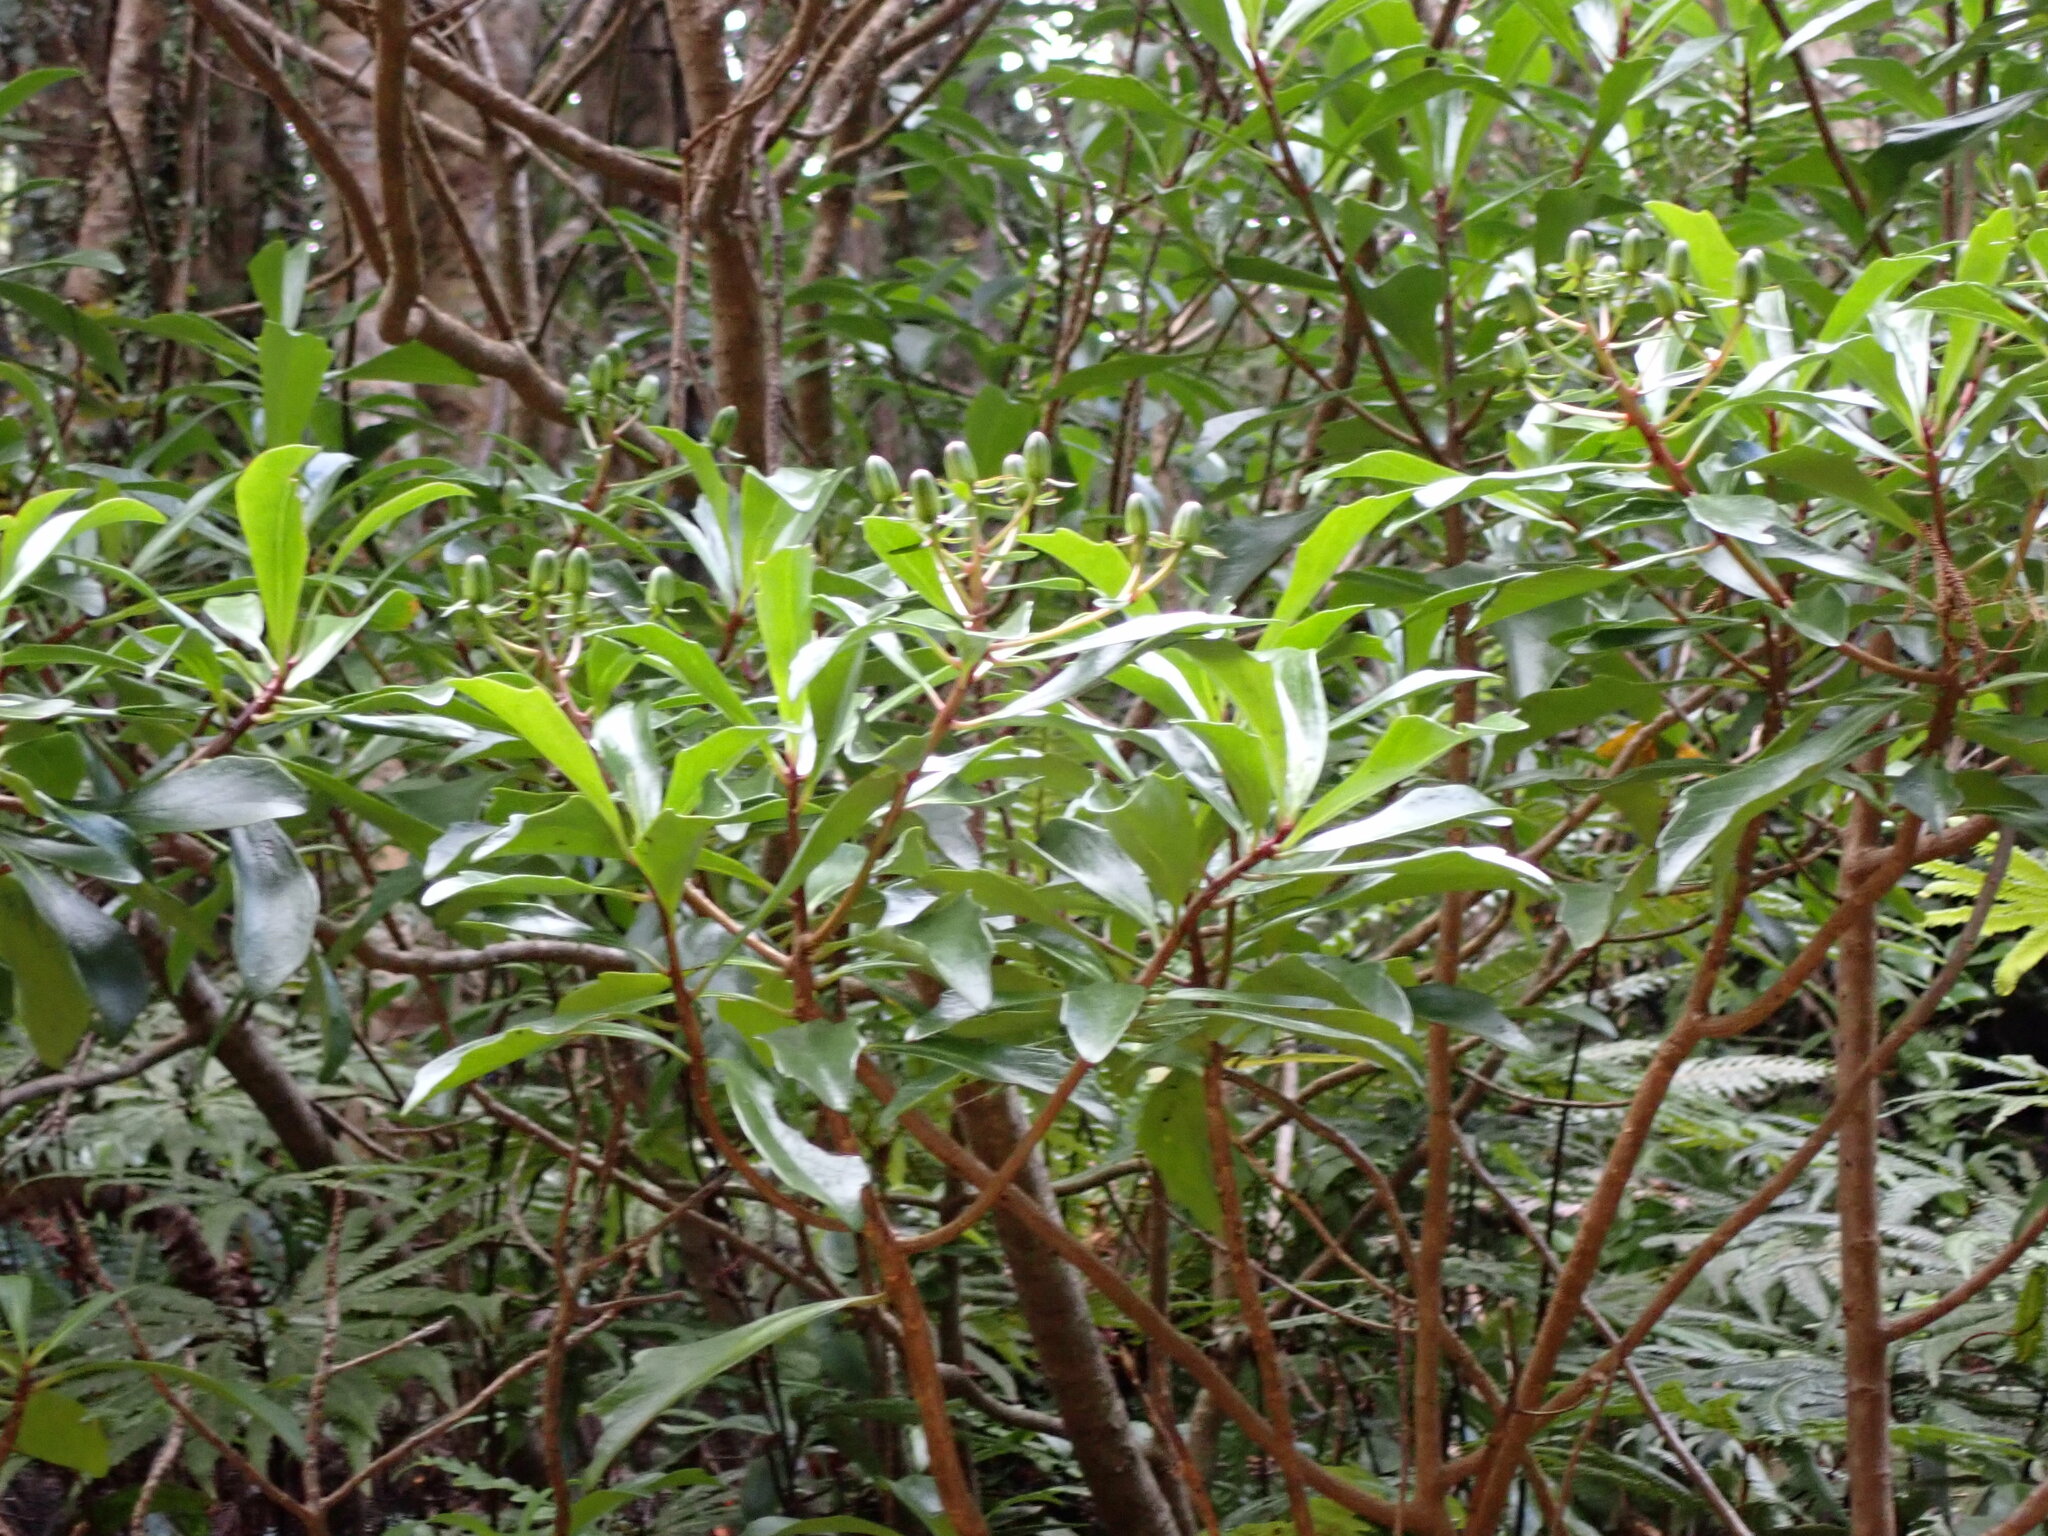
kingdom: Plantae
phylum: Tracheophyta
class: Magnoliopsida
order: Asterales
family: Asteraceae
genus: Brachyglottis
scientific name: Brachyglottis kirkii
